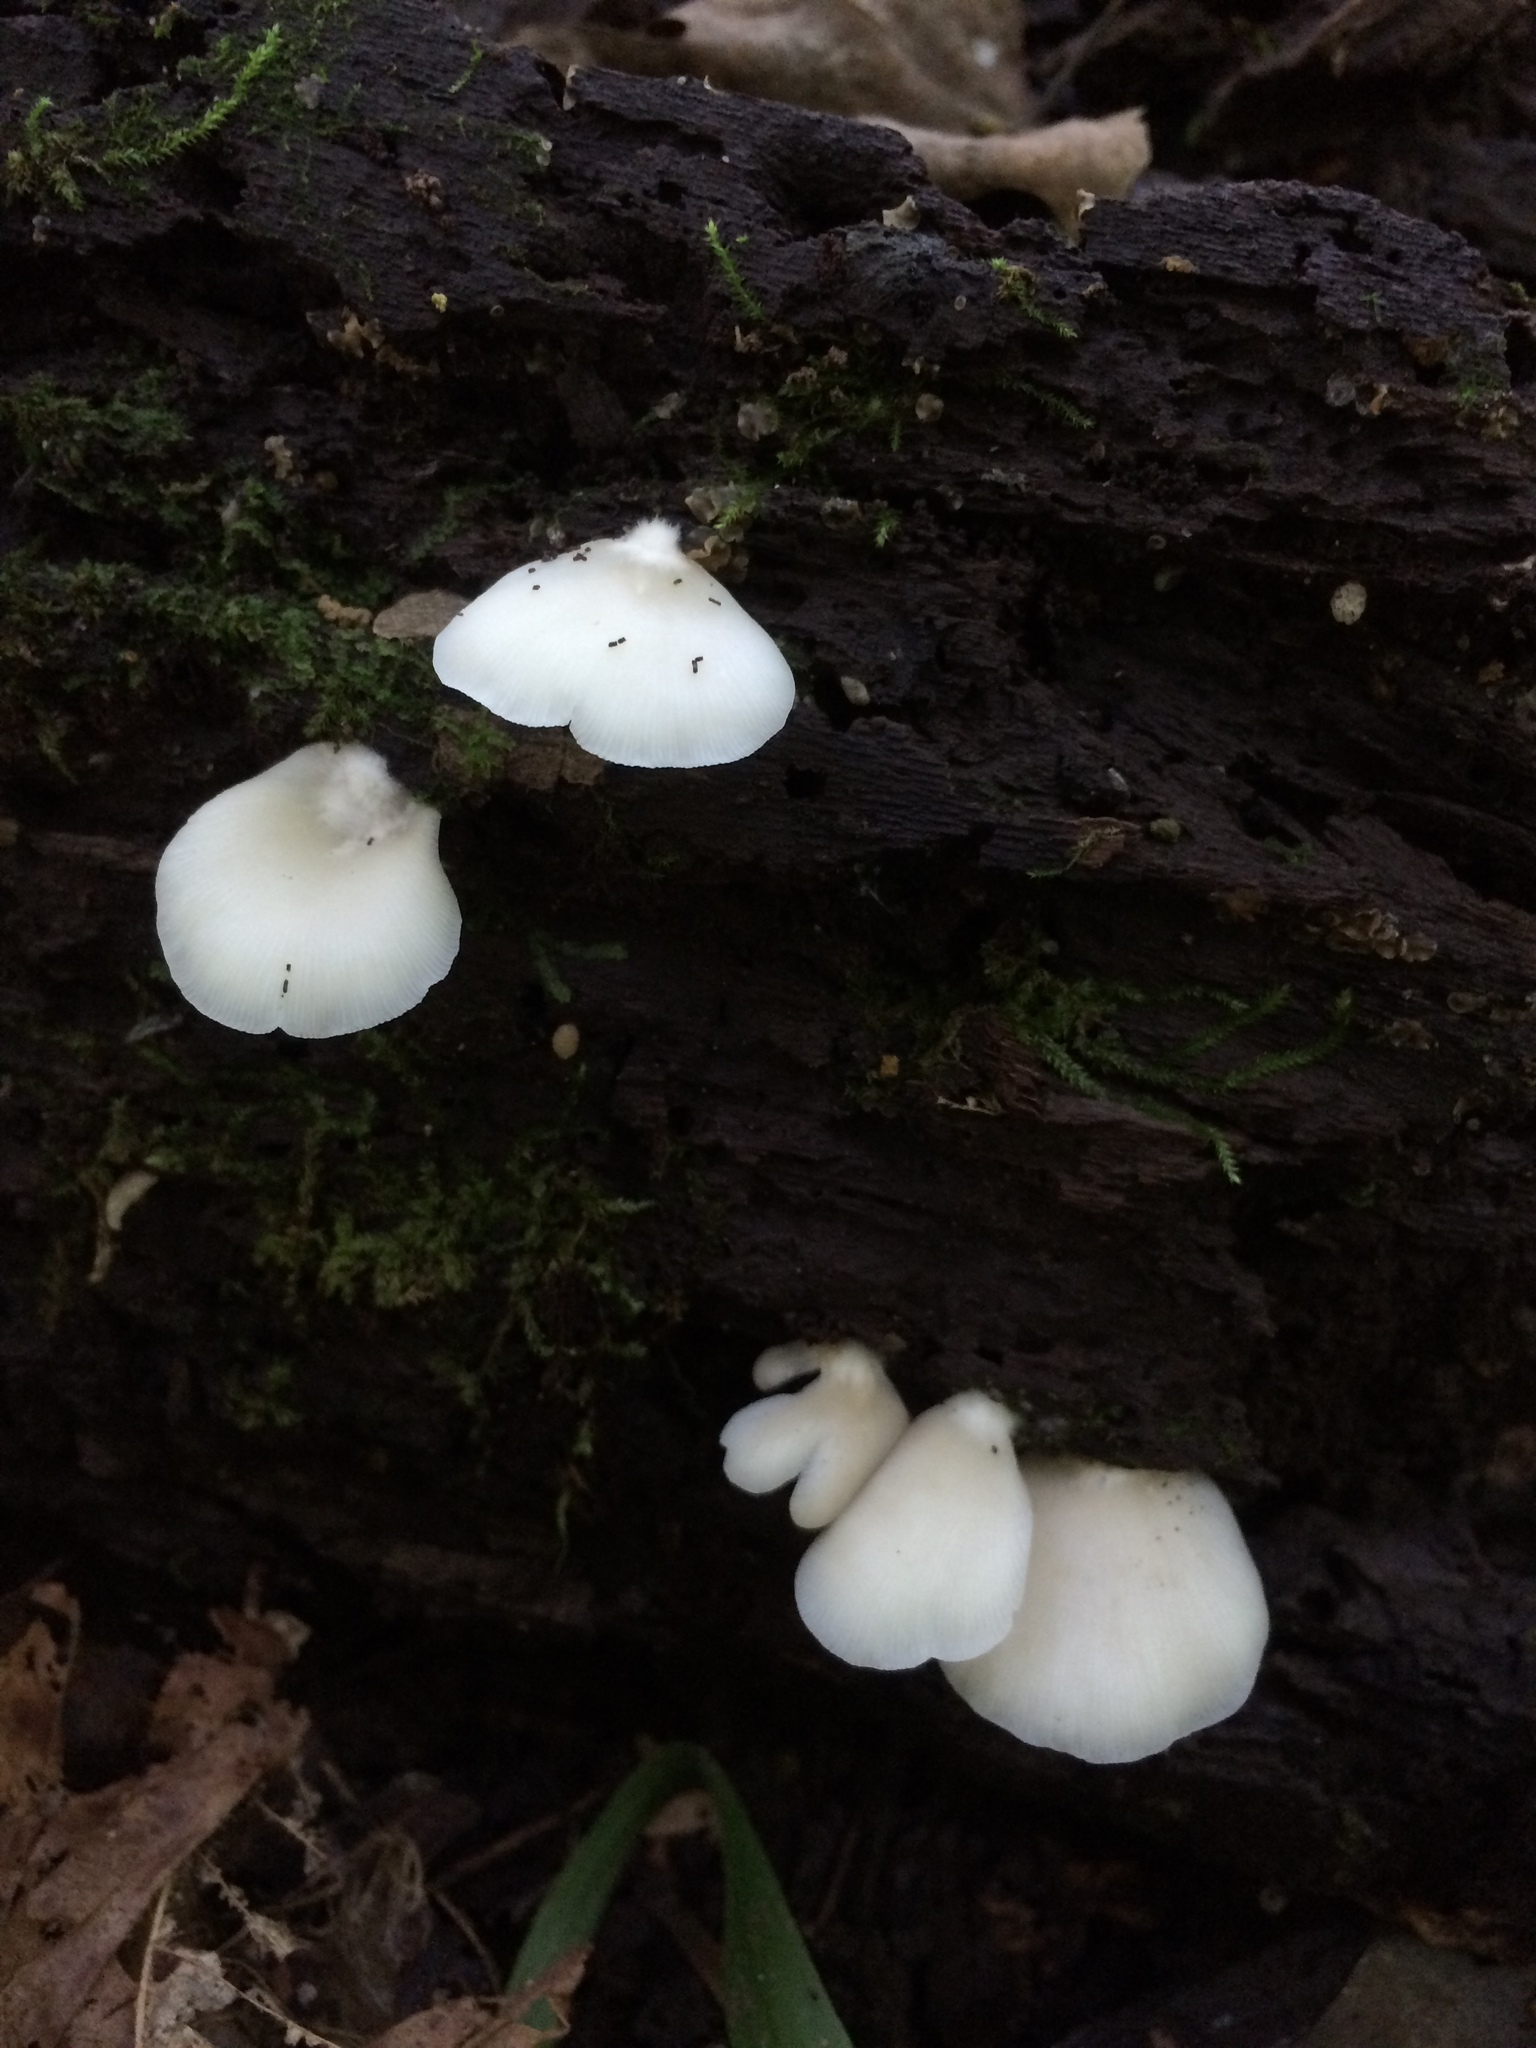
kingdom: Fungi
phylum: Basidiomycota
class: Agaricomycetes
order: Agaricales
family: Crepidotaceae
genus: Crepidotus
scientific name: Crepidotus applanatus
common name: Flat crep
